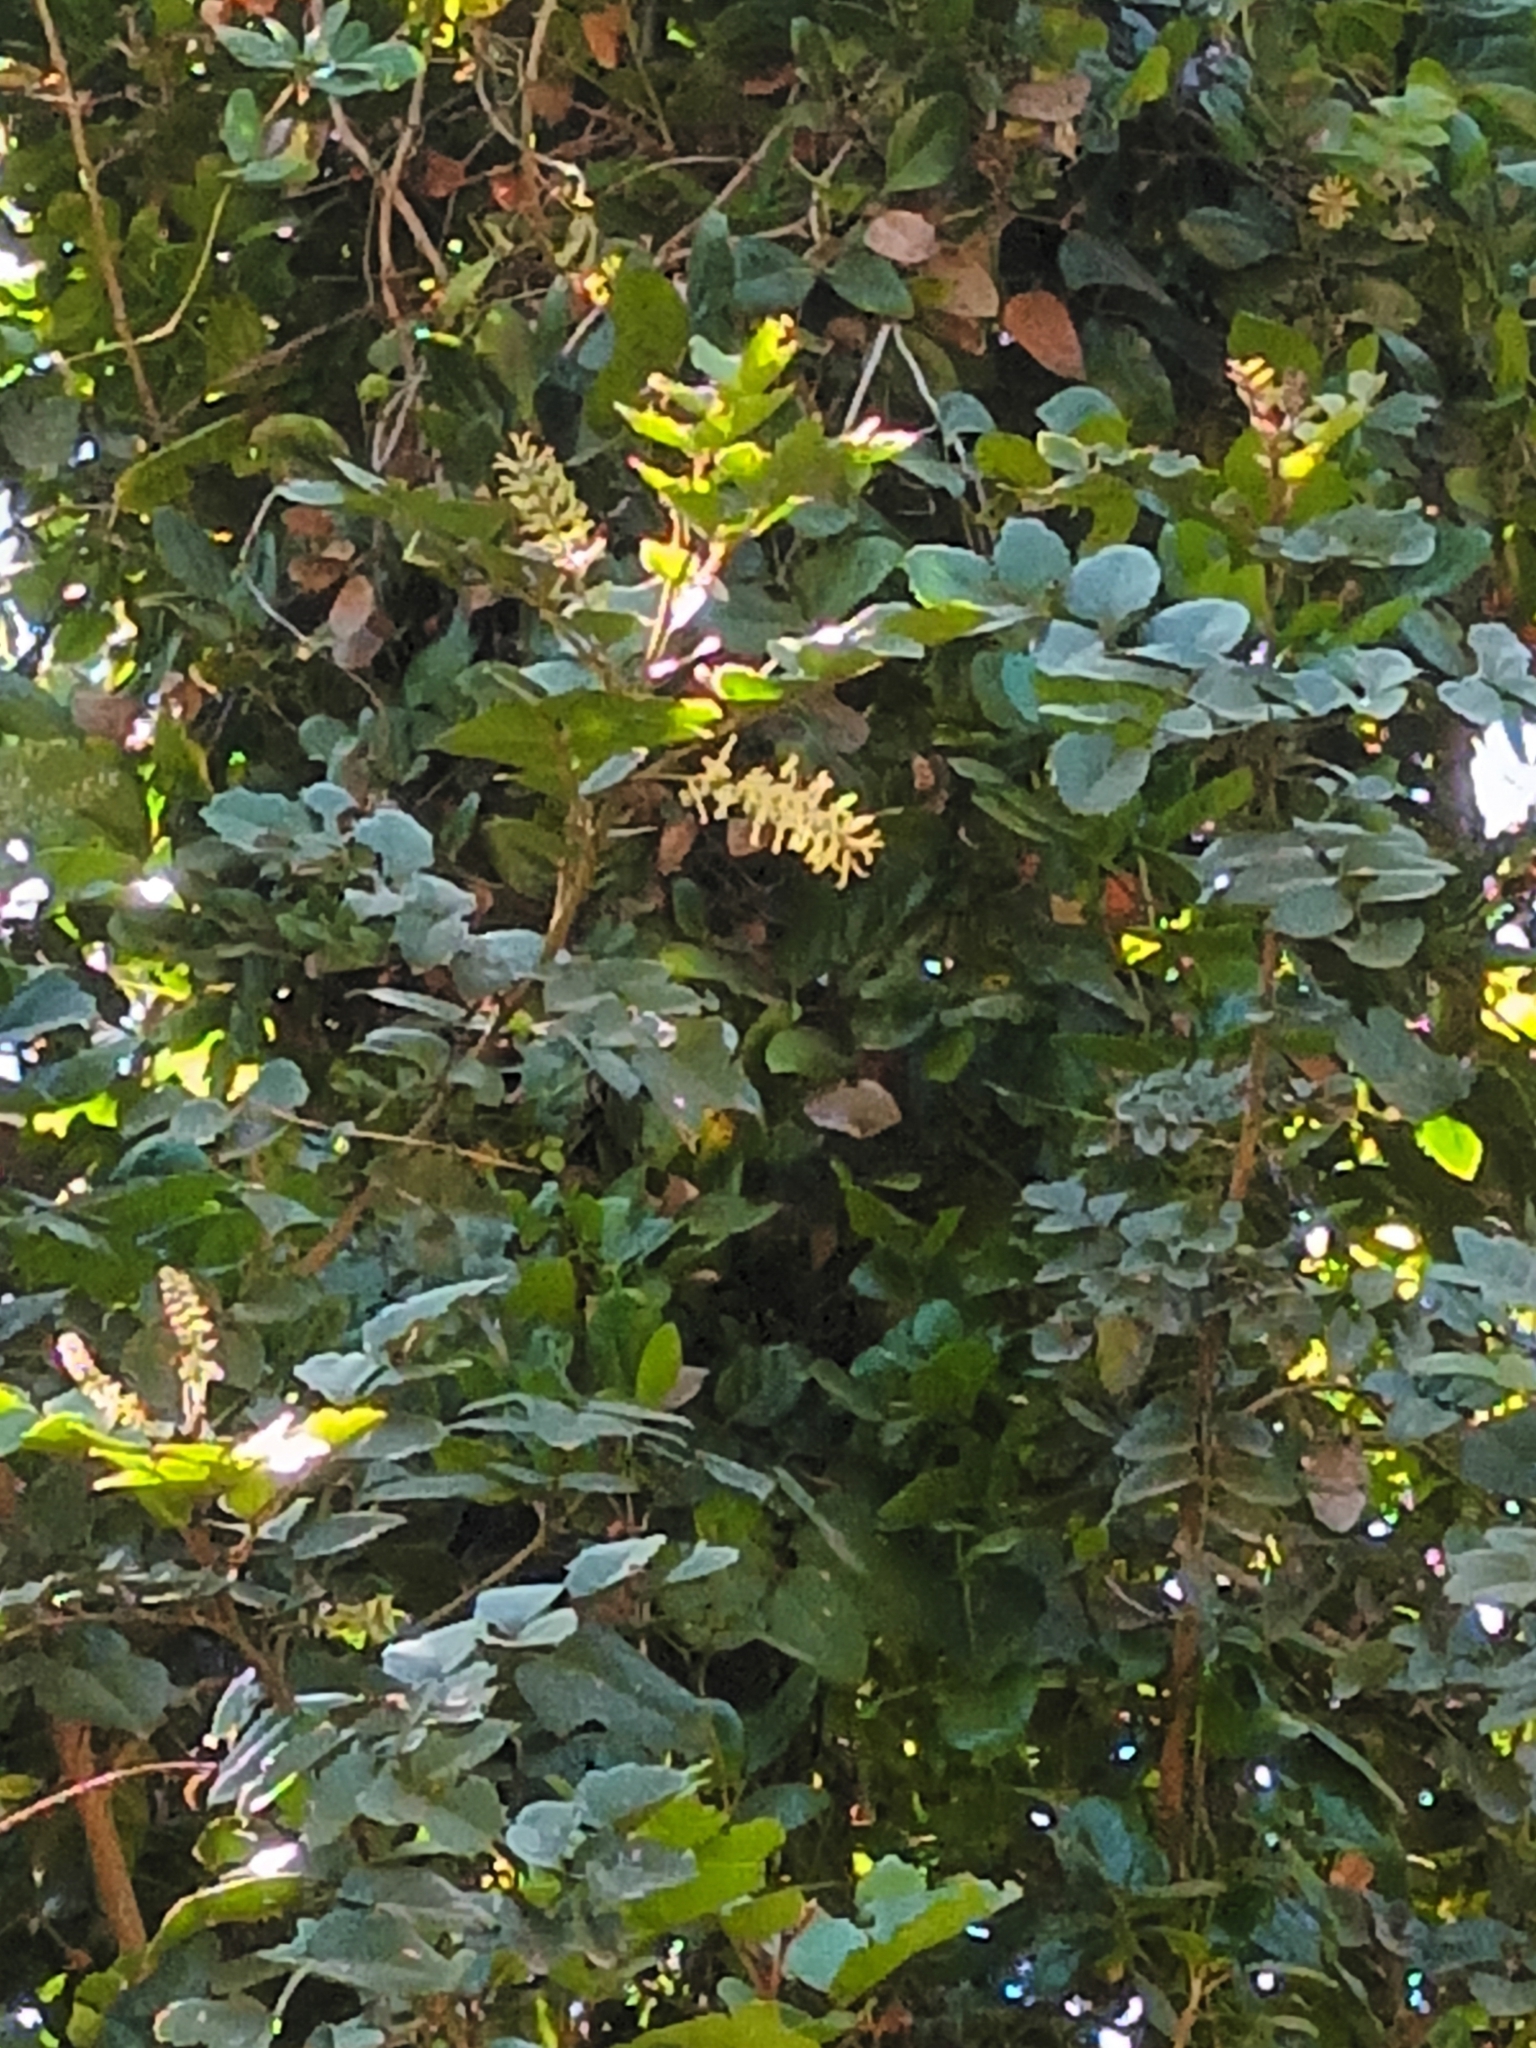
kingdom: Plantae
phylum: Tracheophyta
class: Magnoliopsida
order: Proteales
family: Proteaceae
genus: Gevuina
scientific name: Gevuina avellana
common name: Chilean hazel
